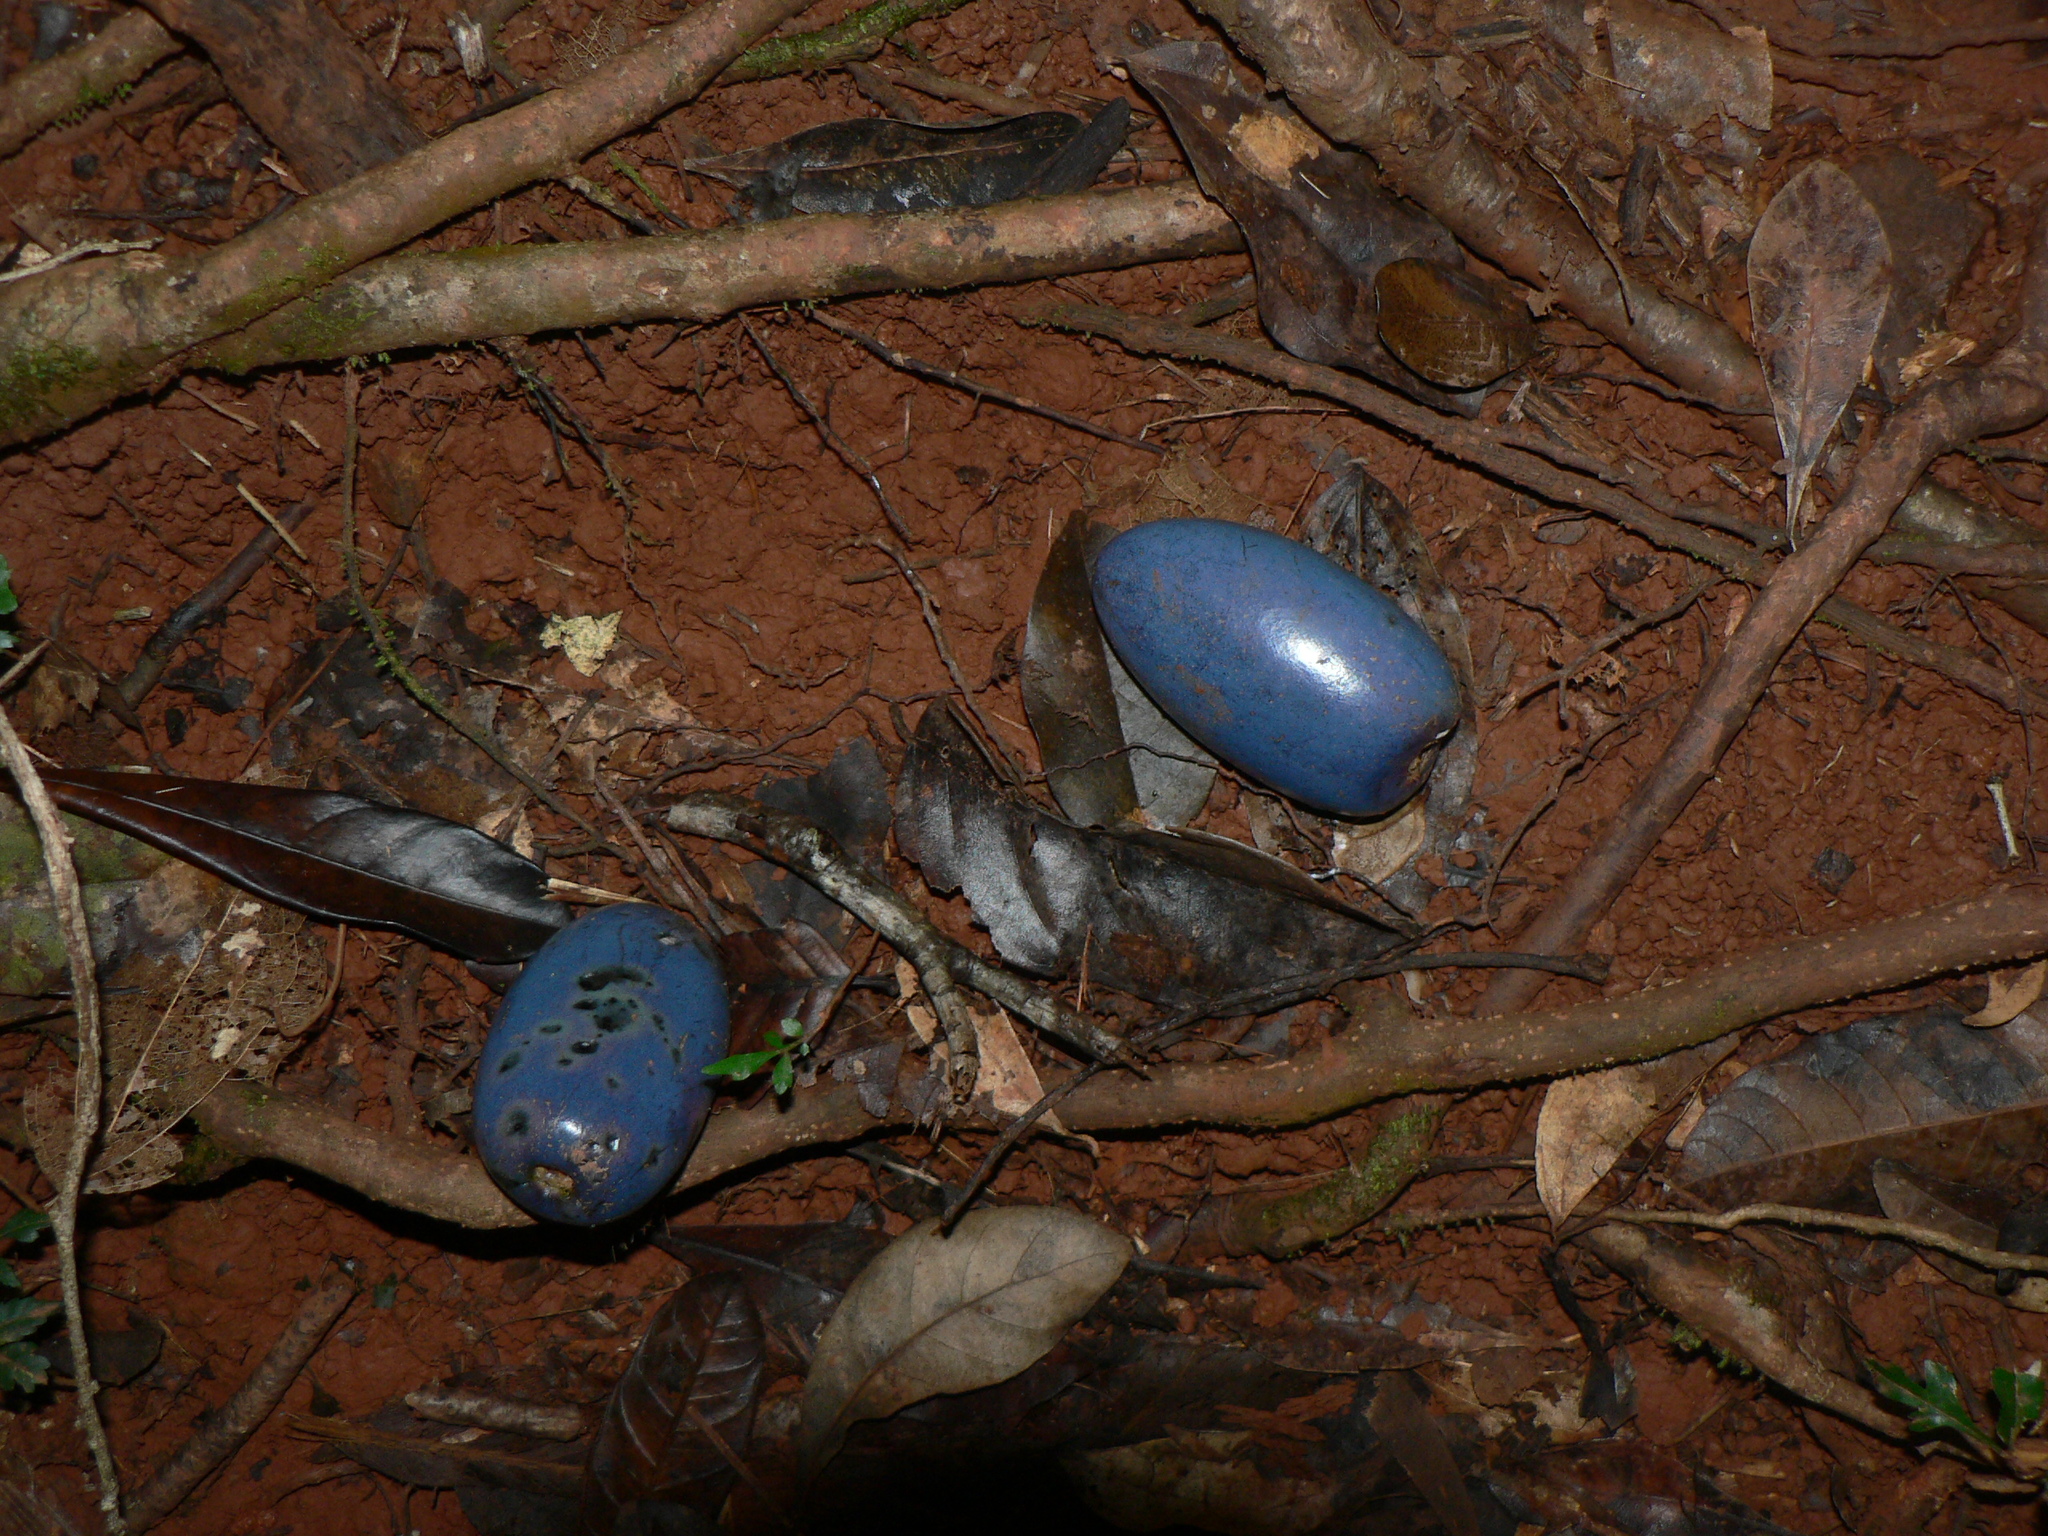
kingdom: Plantae
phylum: Tracheophyta
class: Magnoliopsida
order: Gentianales
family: Apocynaceae
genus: Cerbera
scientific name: Cerbera floribunda
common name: Cassowary plumtree
